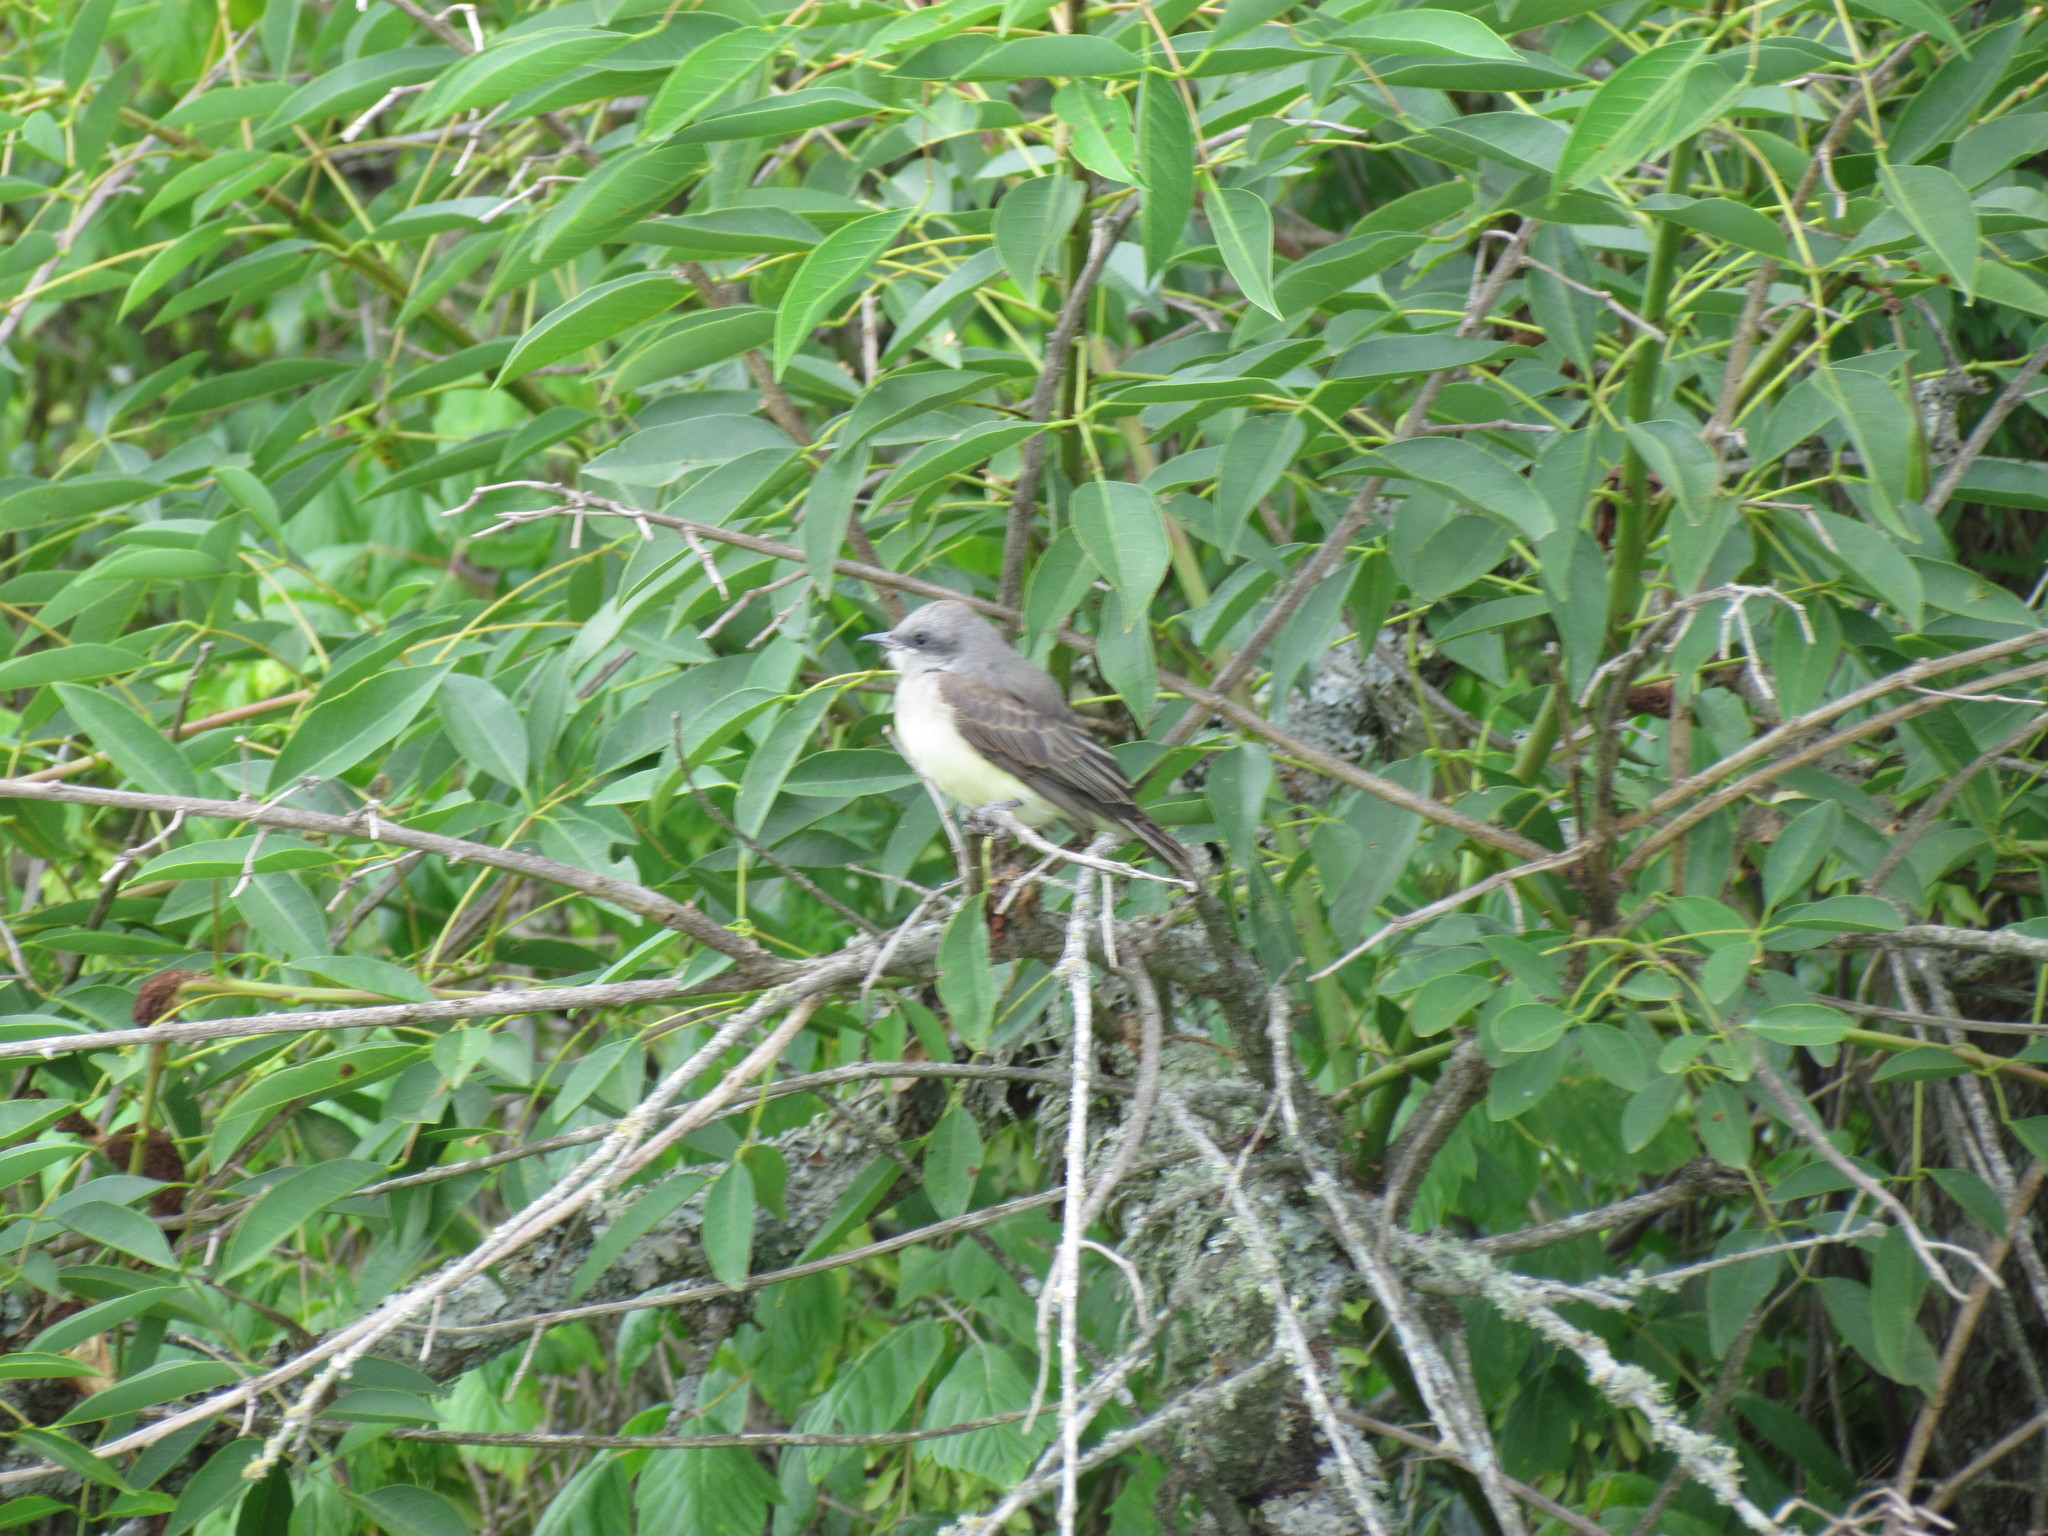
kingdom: Animalia
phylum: Chordata
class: Aves
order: Passeriformes
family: Tyrannidae
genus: Tyrannus
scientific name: Tyrannus melancholicus
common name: Tropical kingbird
